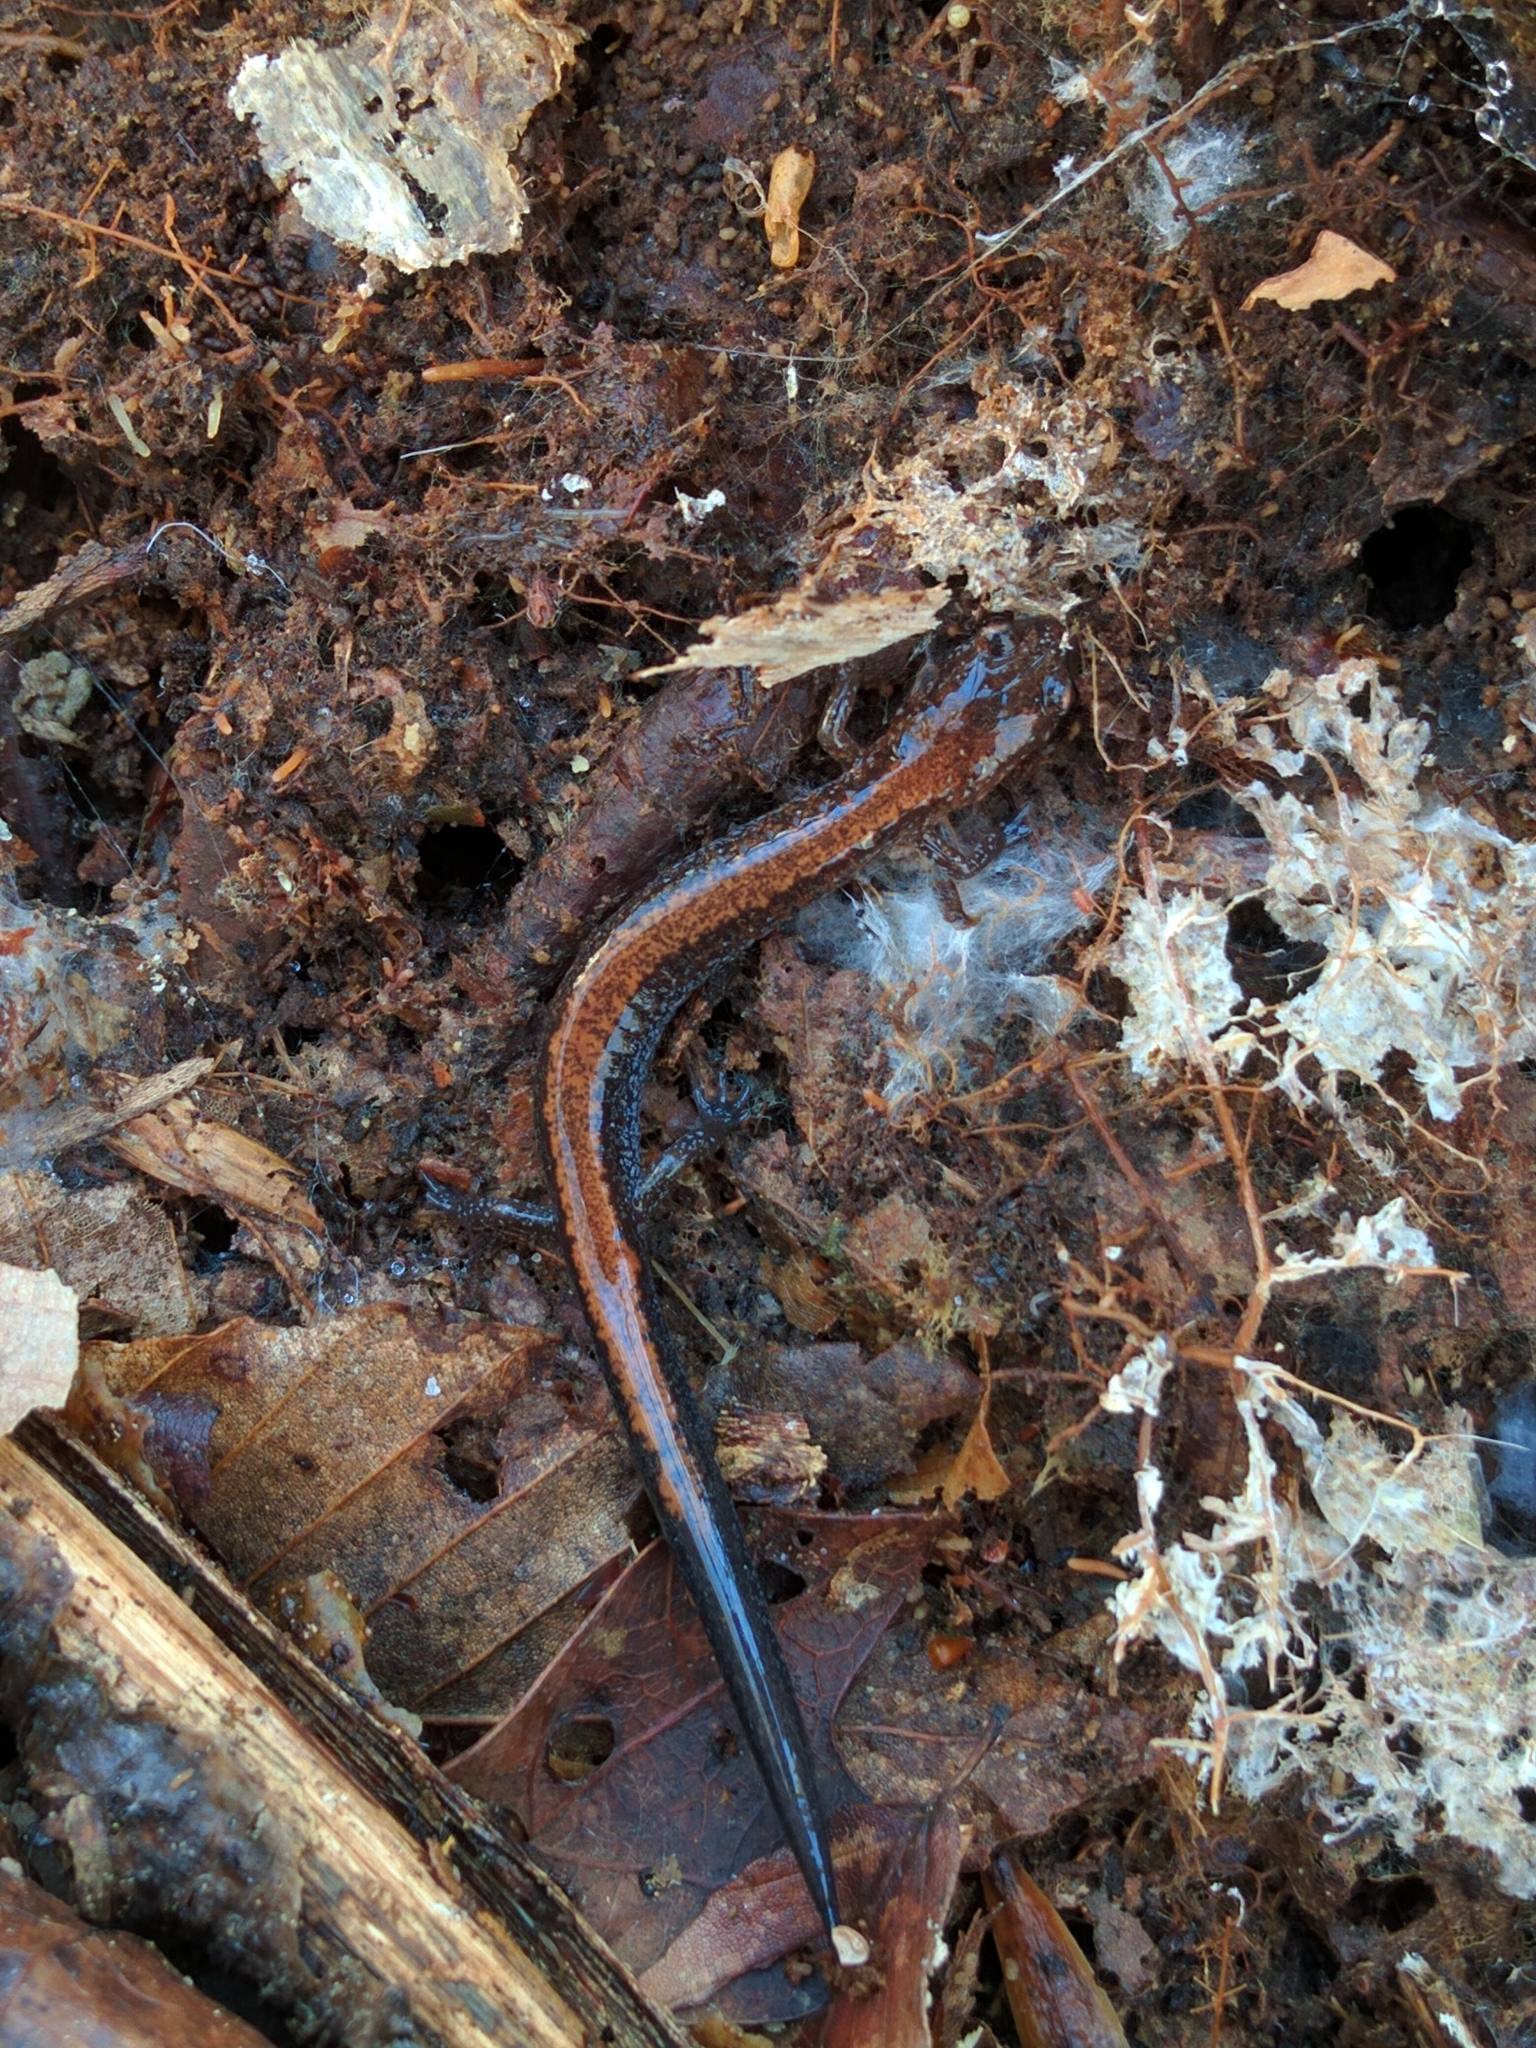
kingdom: Animalia
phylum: Chordata
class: Amphibia
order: Caudata
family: Plethodontidae
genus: Plethodon
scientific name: Plethodon cinereus
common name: Redback salamander
